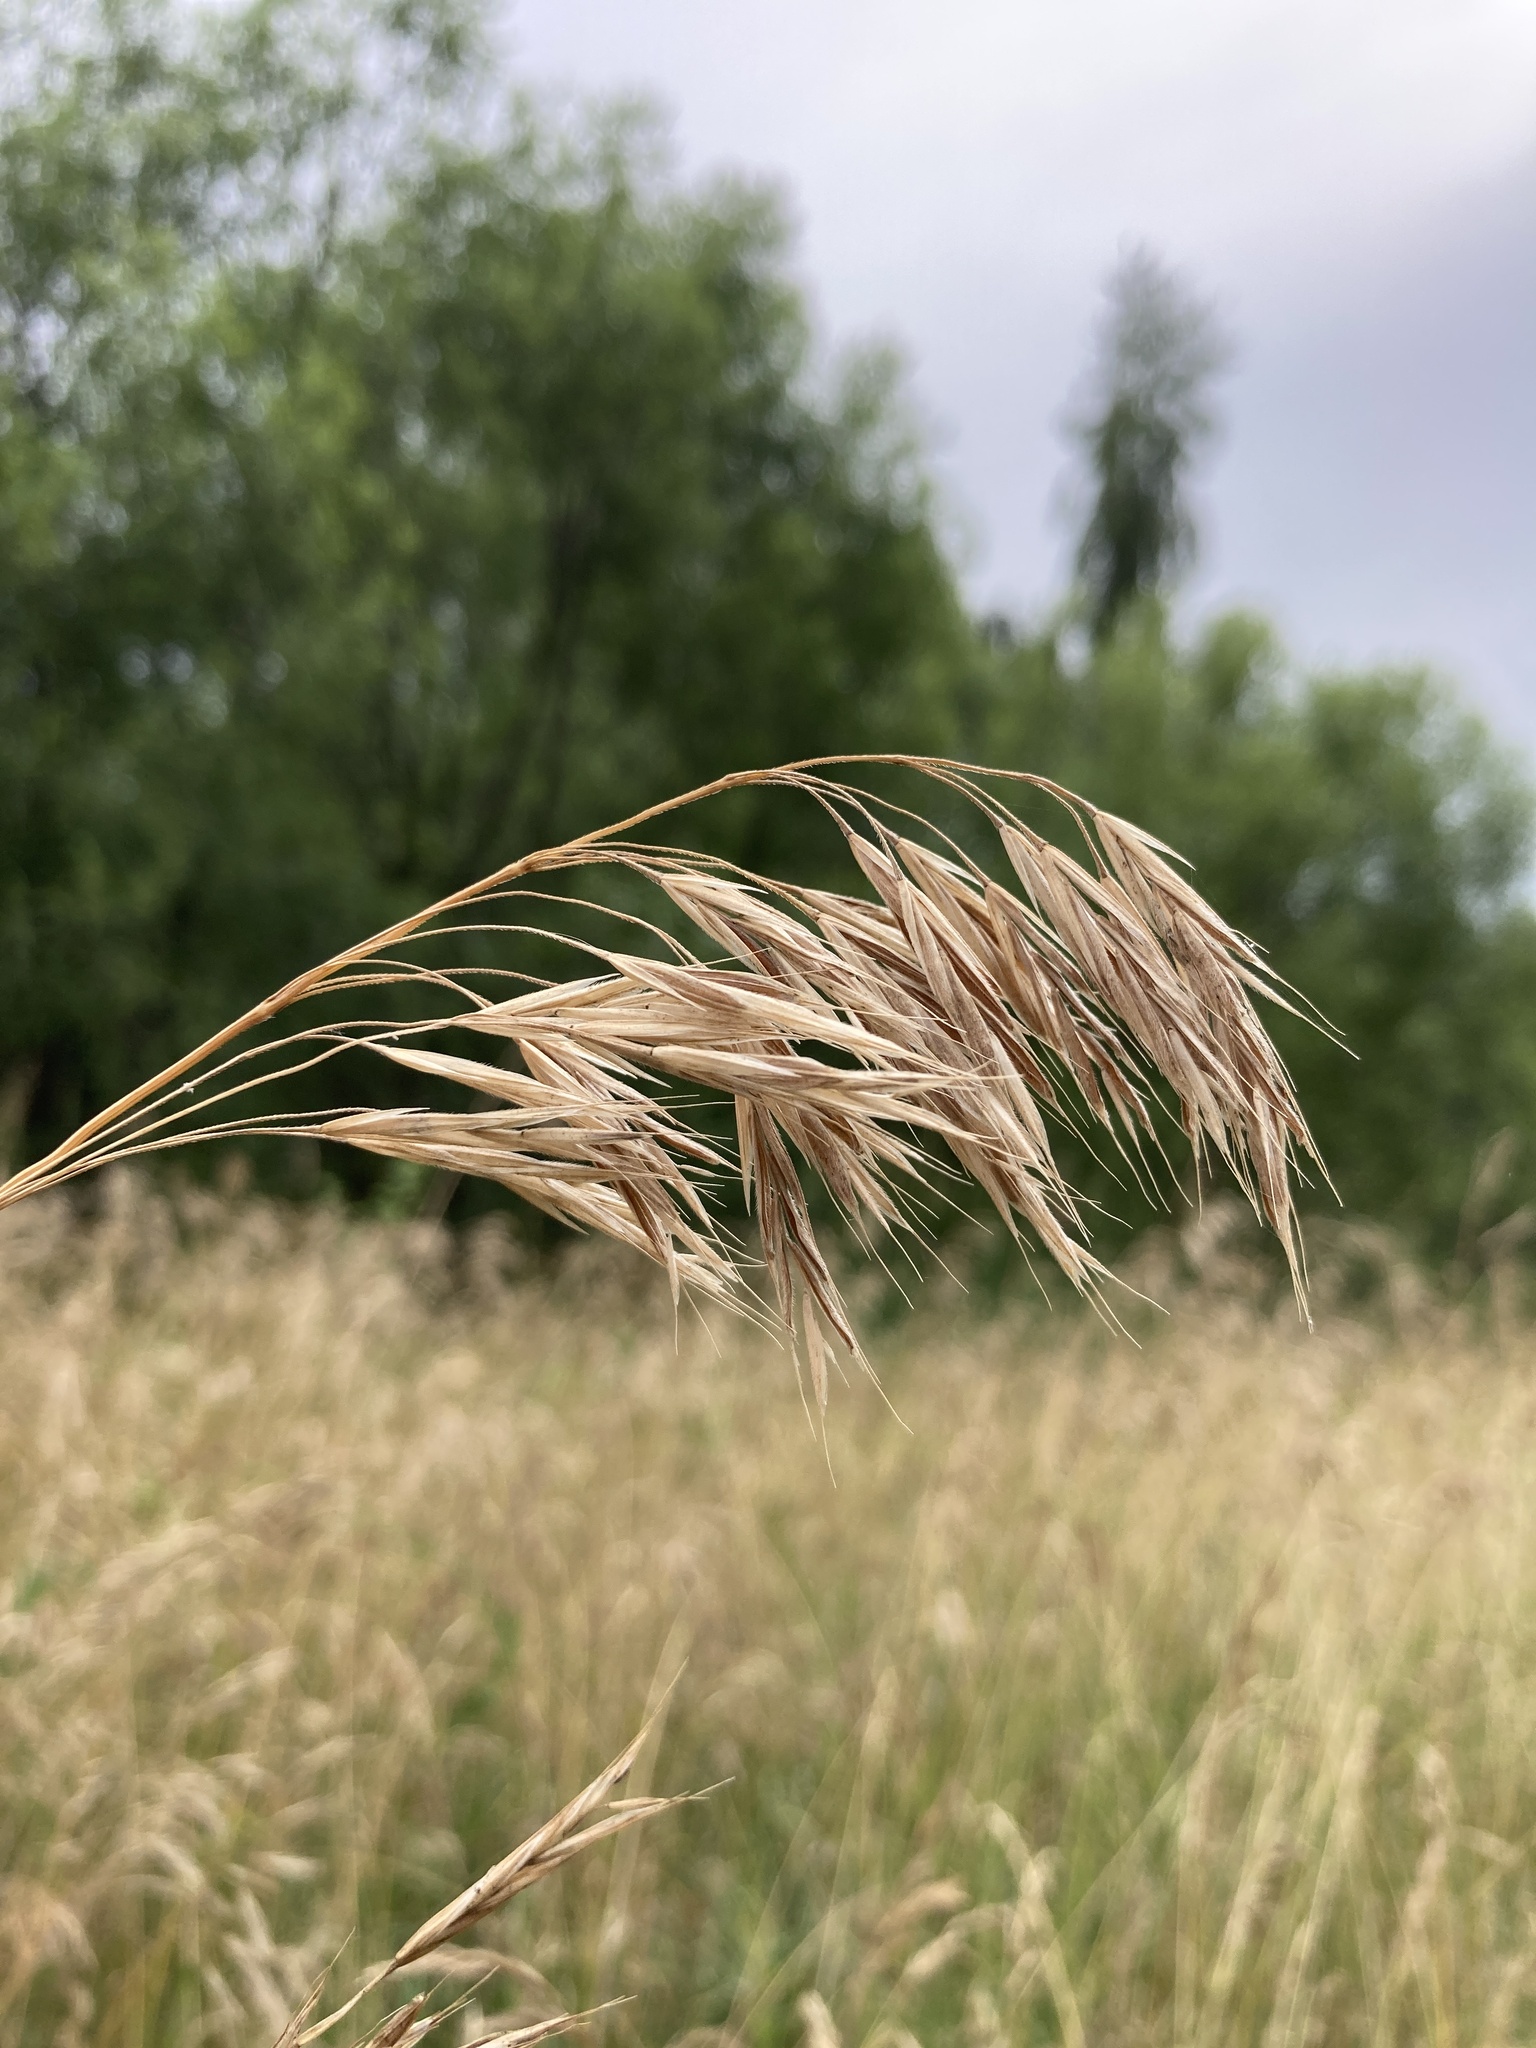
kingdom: Plantae
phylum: Tracheophyta
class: Liliopsida
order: Poales
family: Poaceae
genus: Bromus
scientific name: Bromus riparius
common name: Meadow brome
